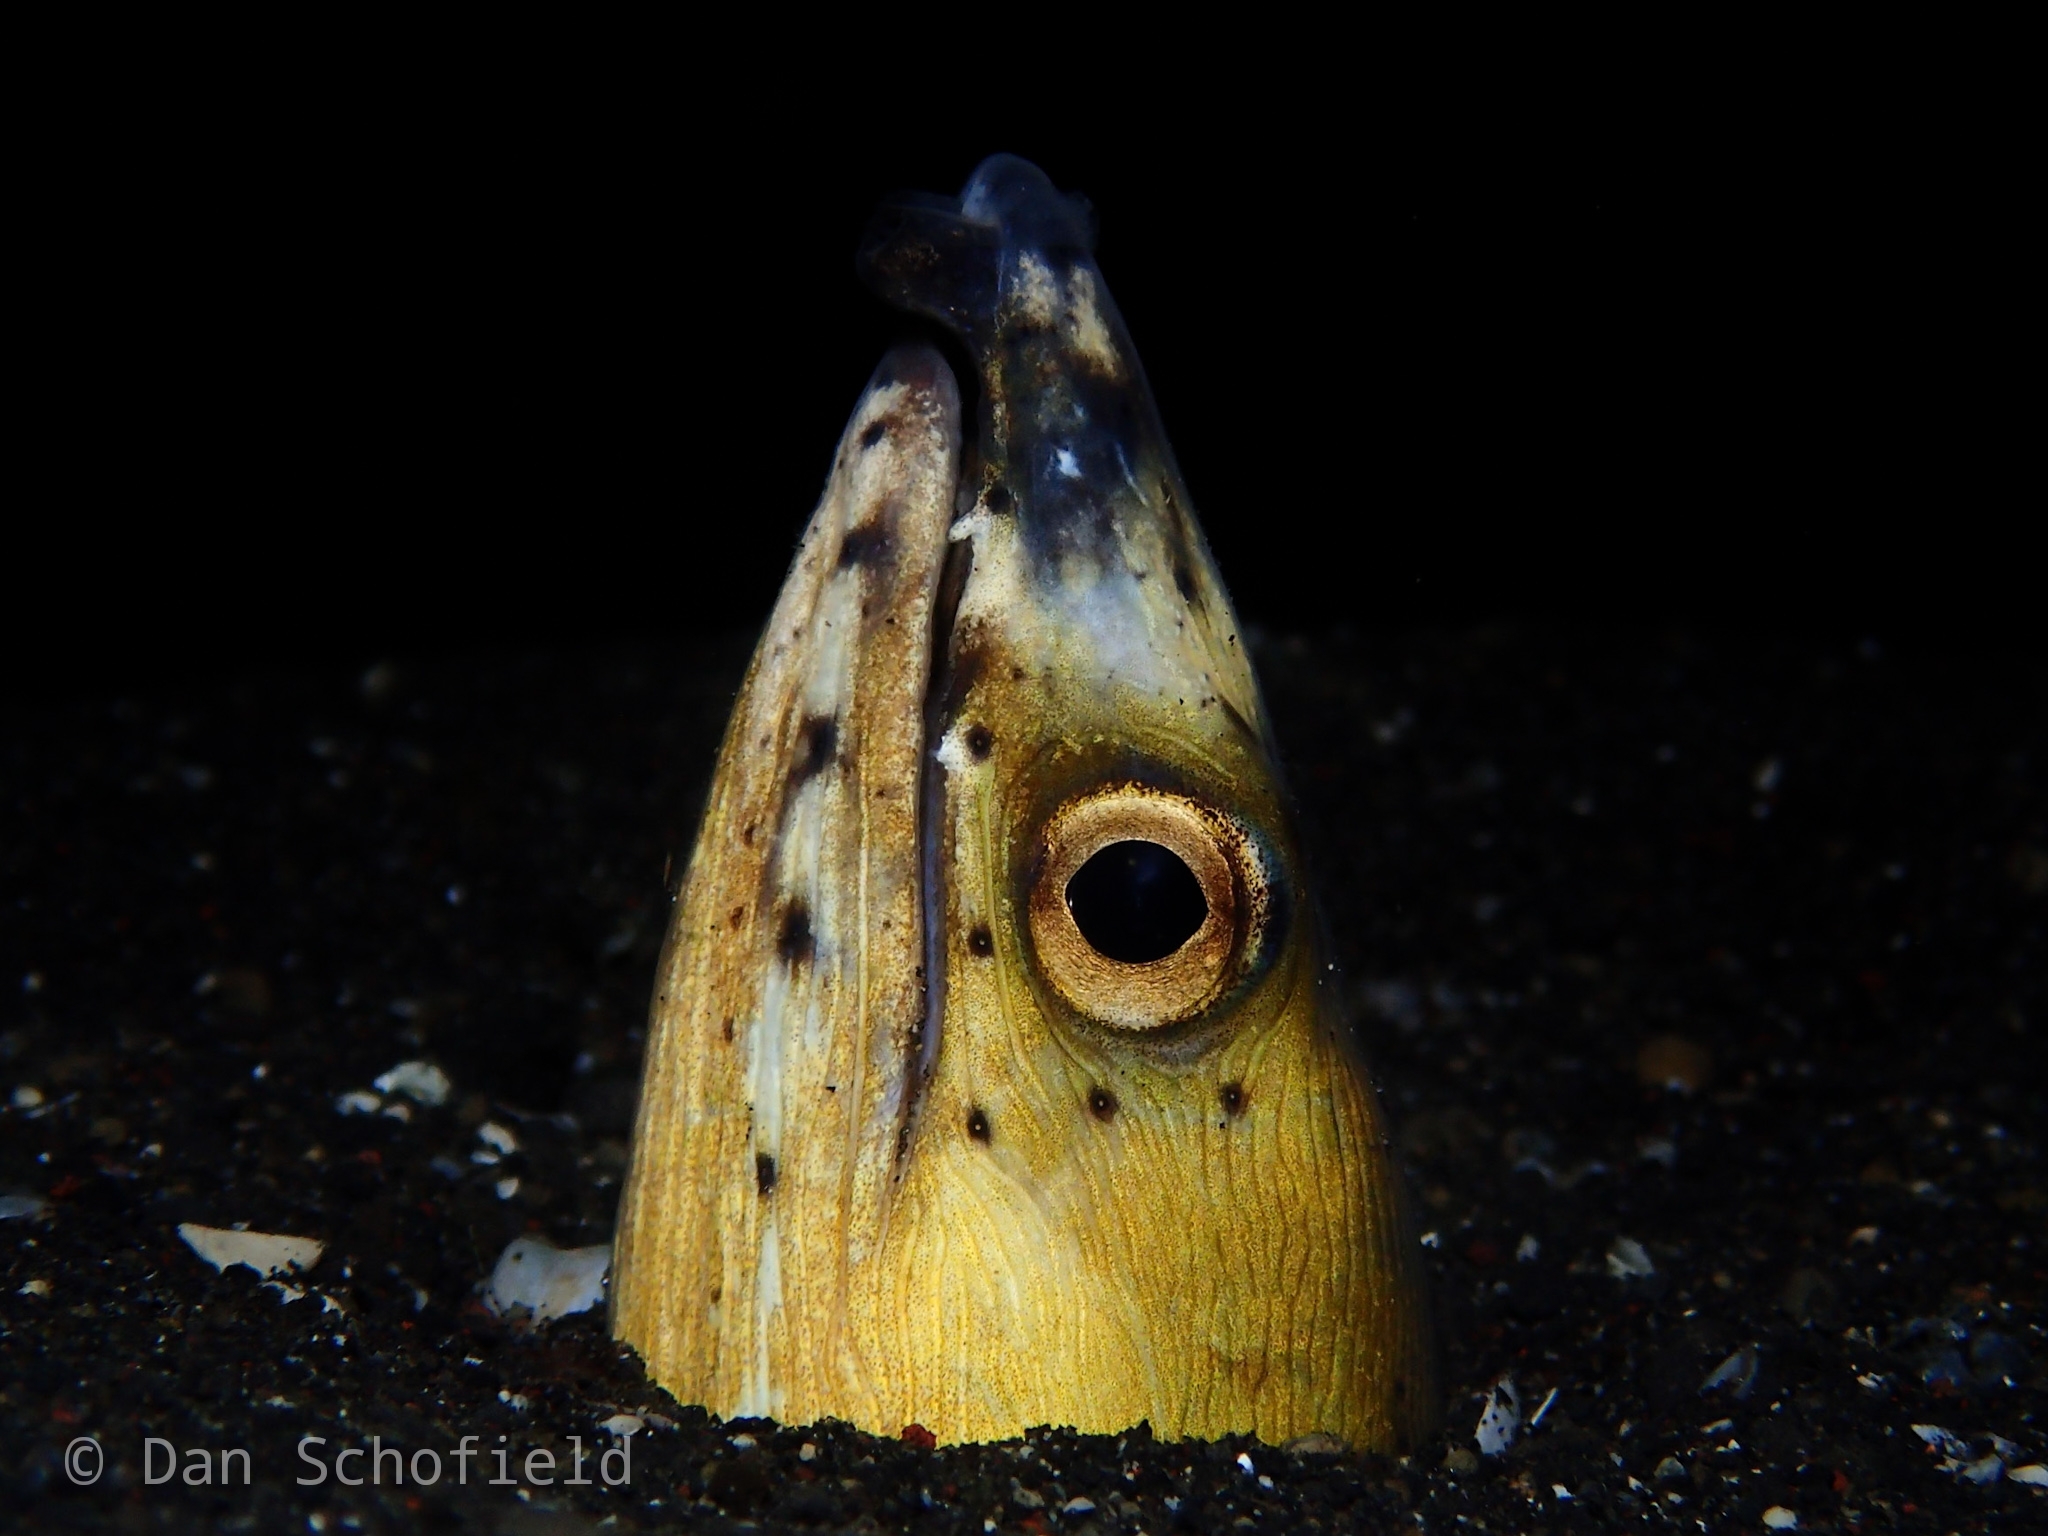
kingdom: Animalia
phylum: Chordata
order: Anguilliformes
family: Ophichthidae
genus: Ophichthus
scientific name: Ophichthus altipennis
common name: Highfin snake eel
